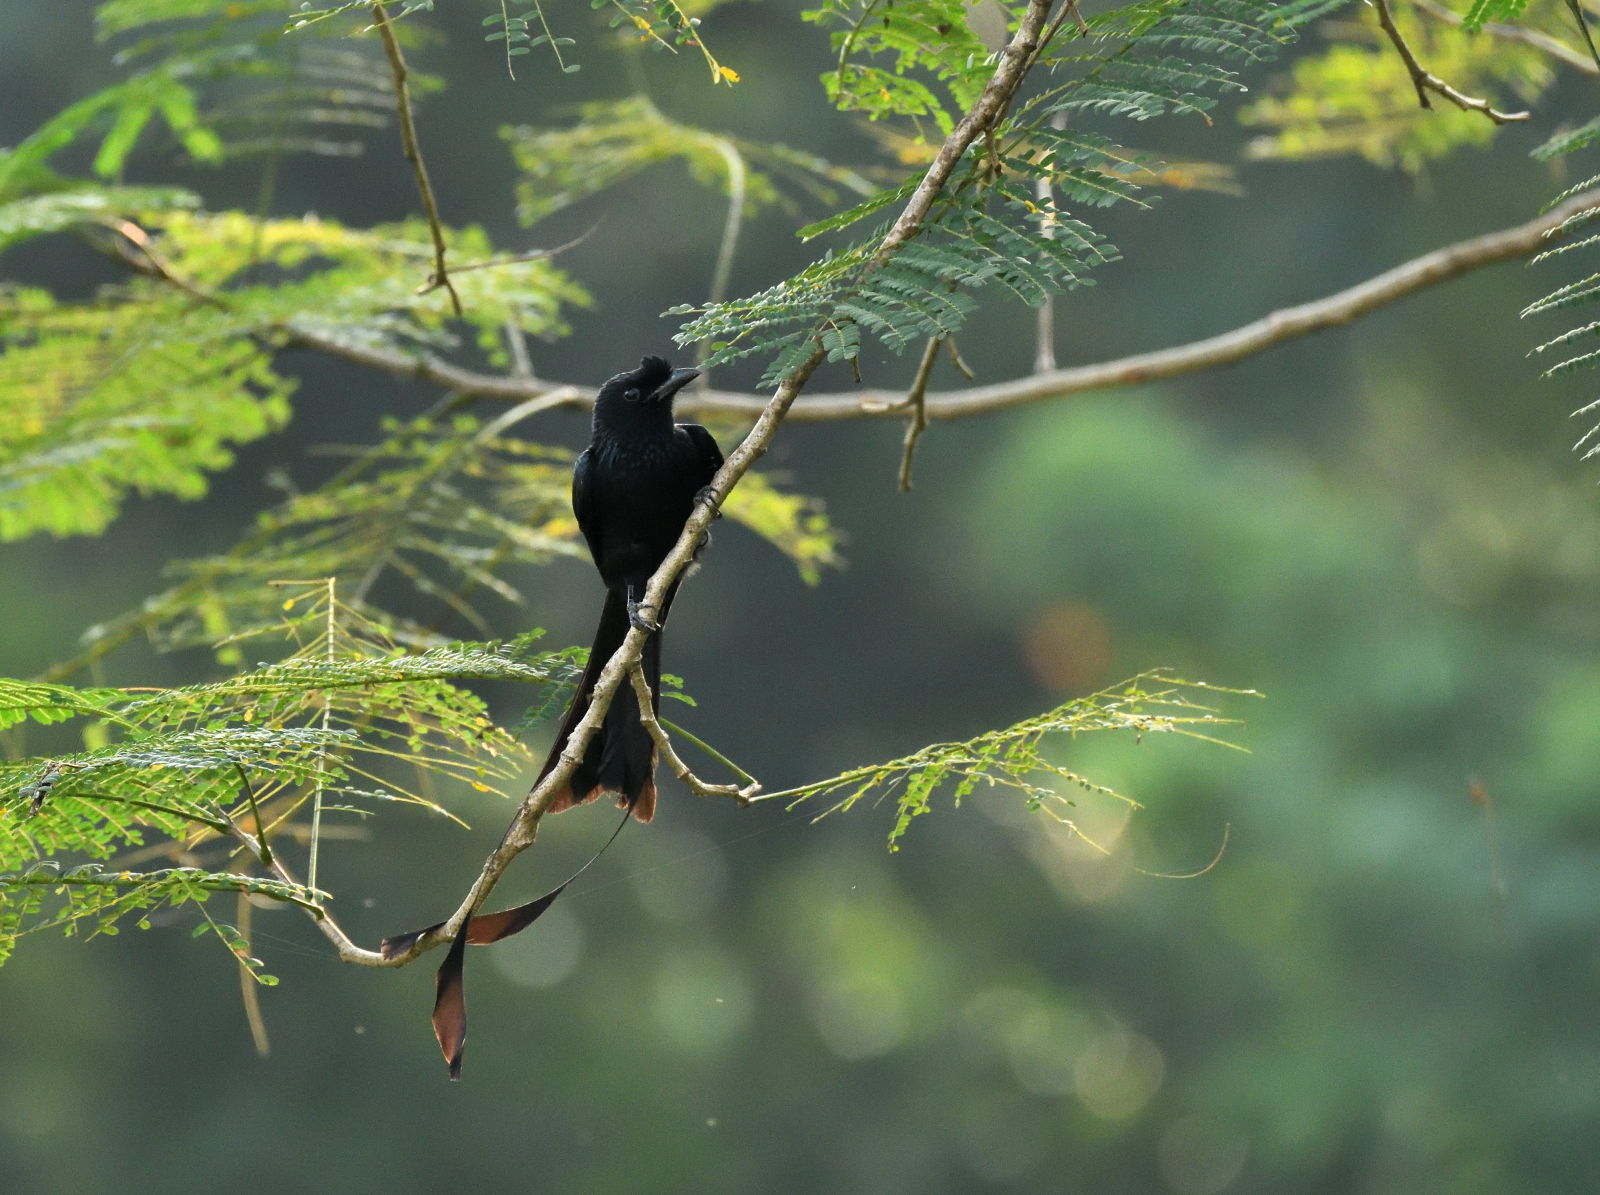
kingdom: Animalia
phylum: Chordata
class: Aves
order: Passeriformes
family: Dicruridae
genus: Dicrurus
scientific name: Dicrurus paradiseus
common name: Greater racket-tailed drongo
